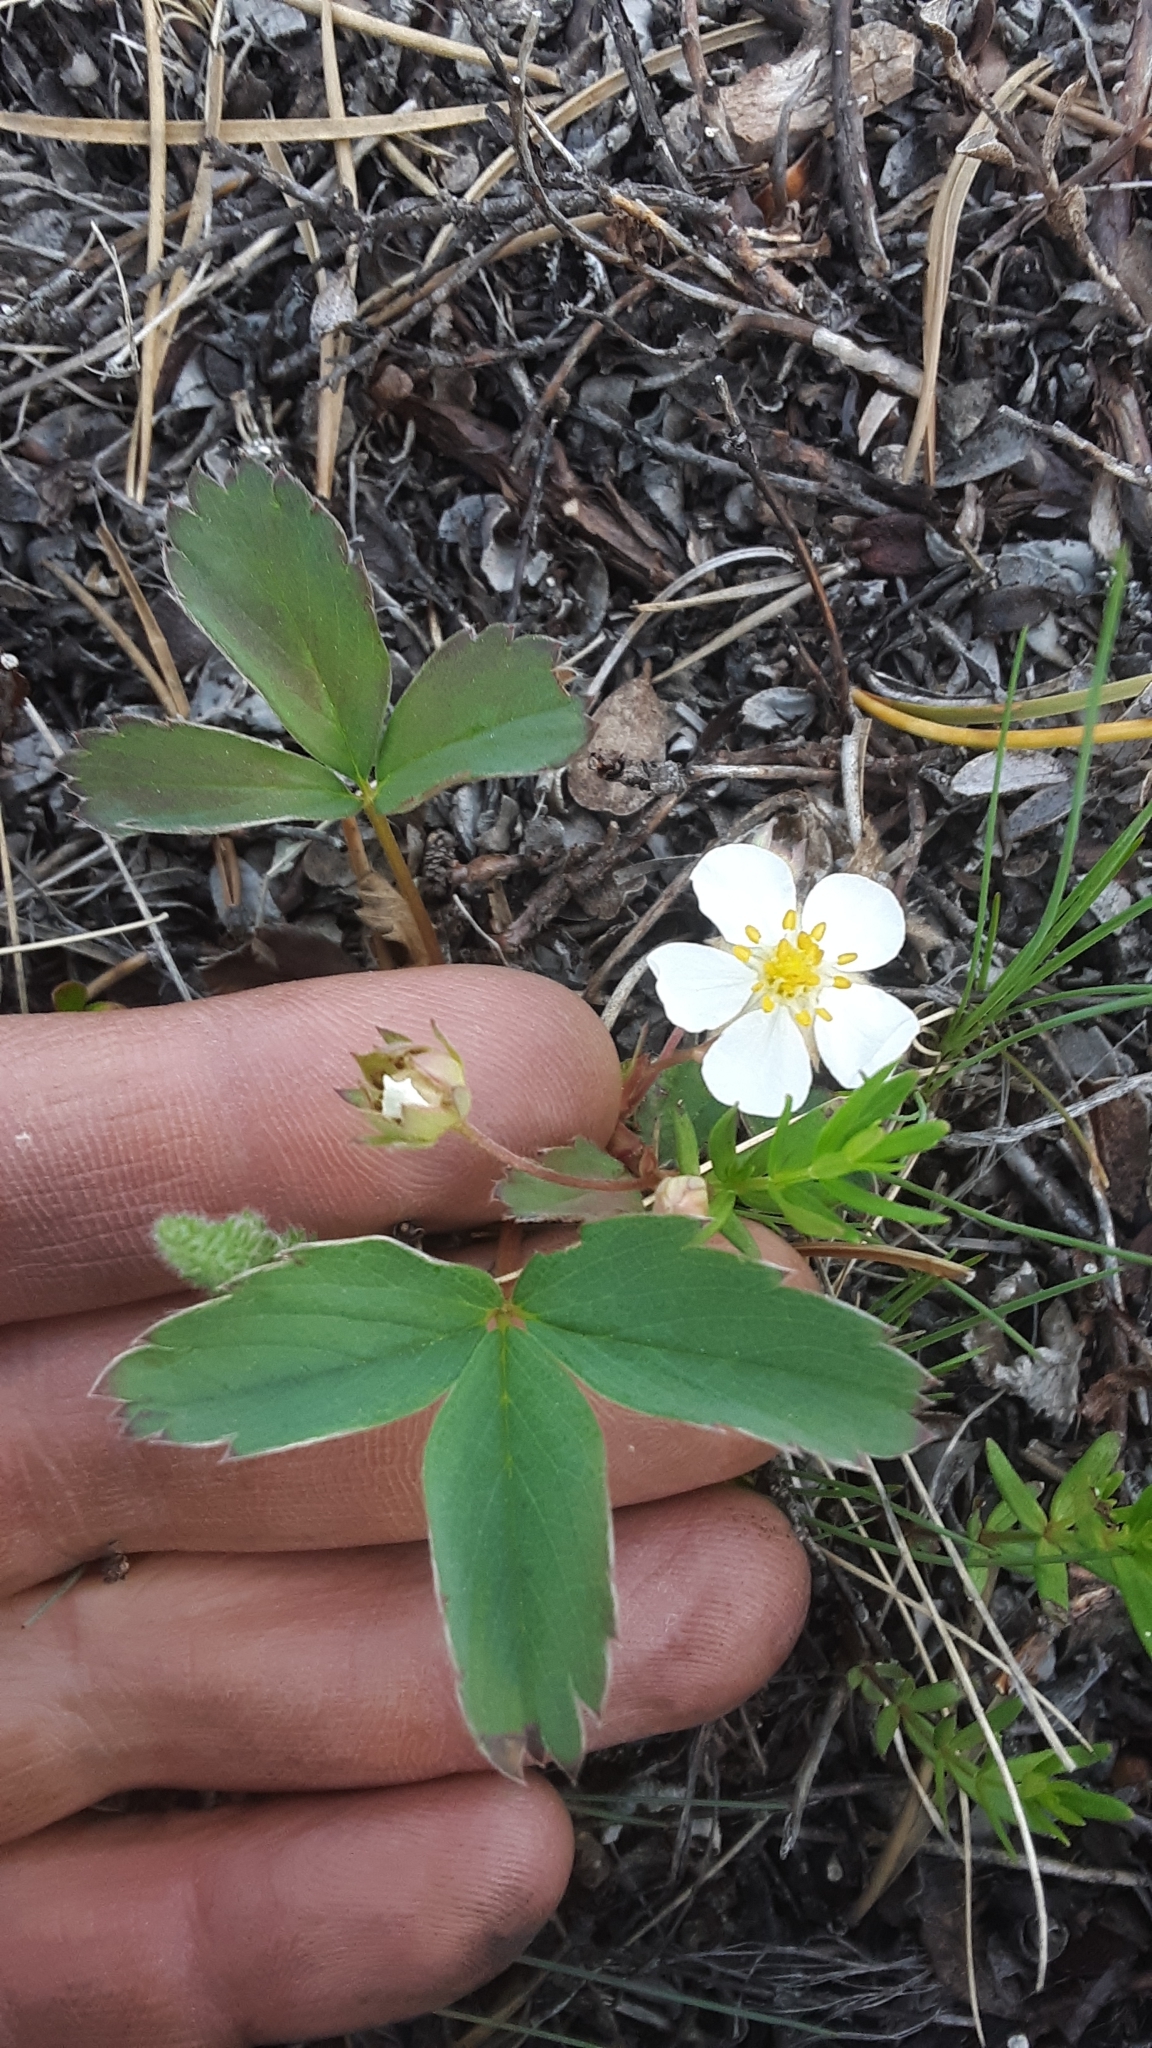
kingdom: Plantae
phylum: Tracheophyta
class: Magnoliopsida
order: Rosales
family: Rosaceae
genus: Fragaria
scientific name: Fragaria virginiana
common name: Thickleaved wild strawberry
